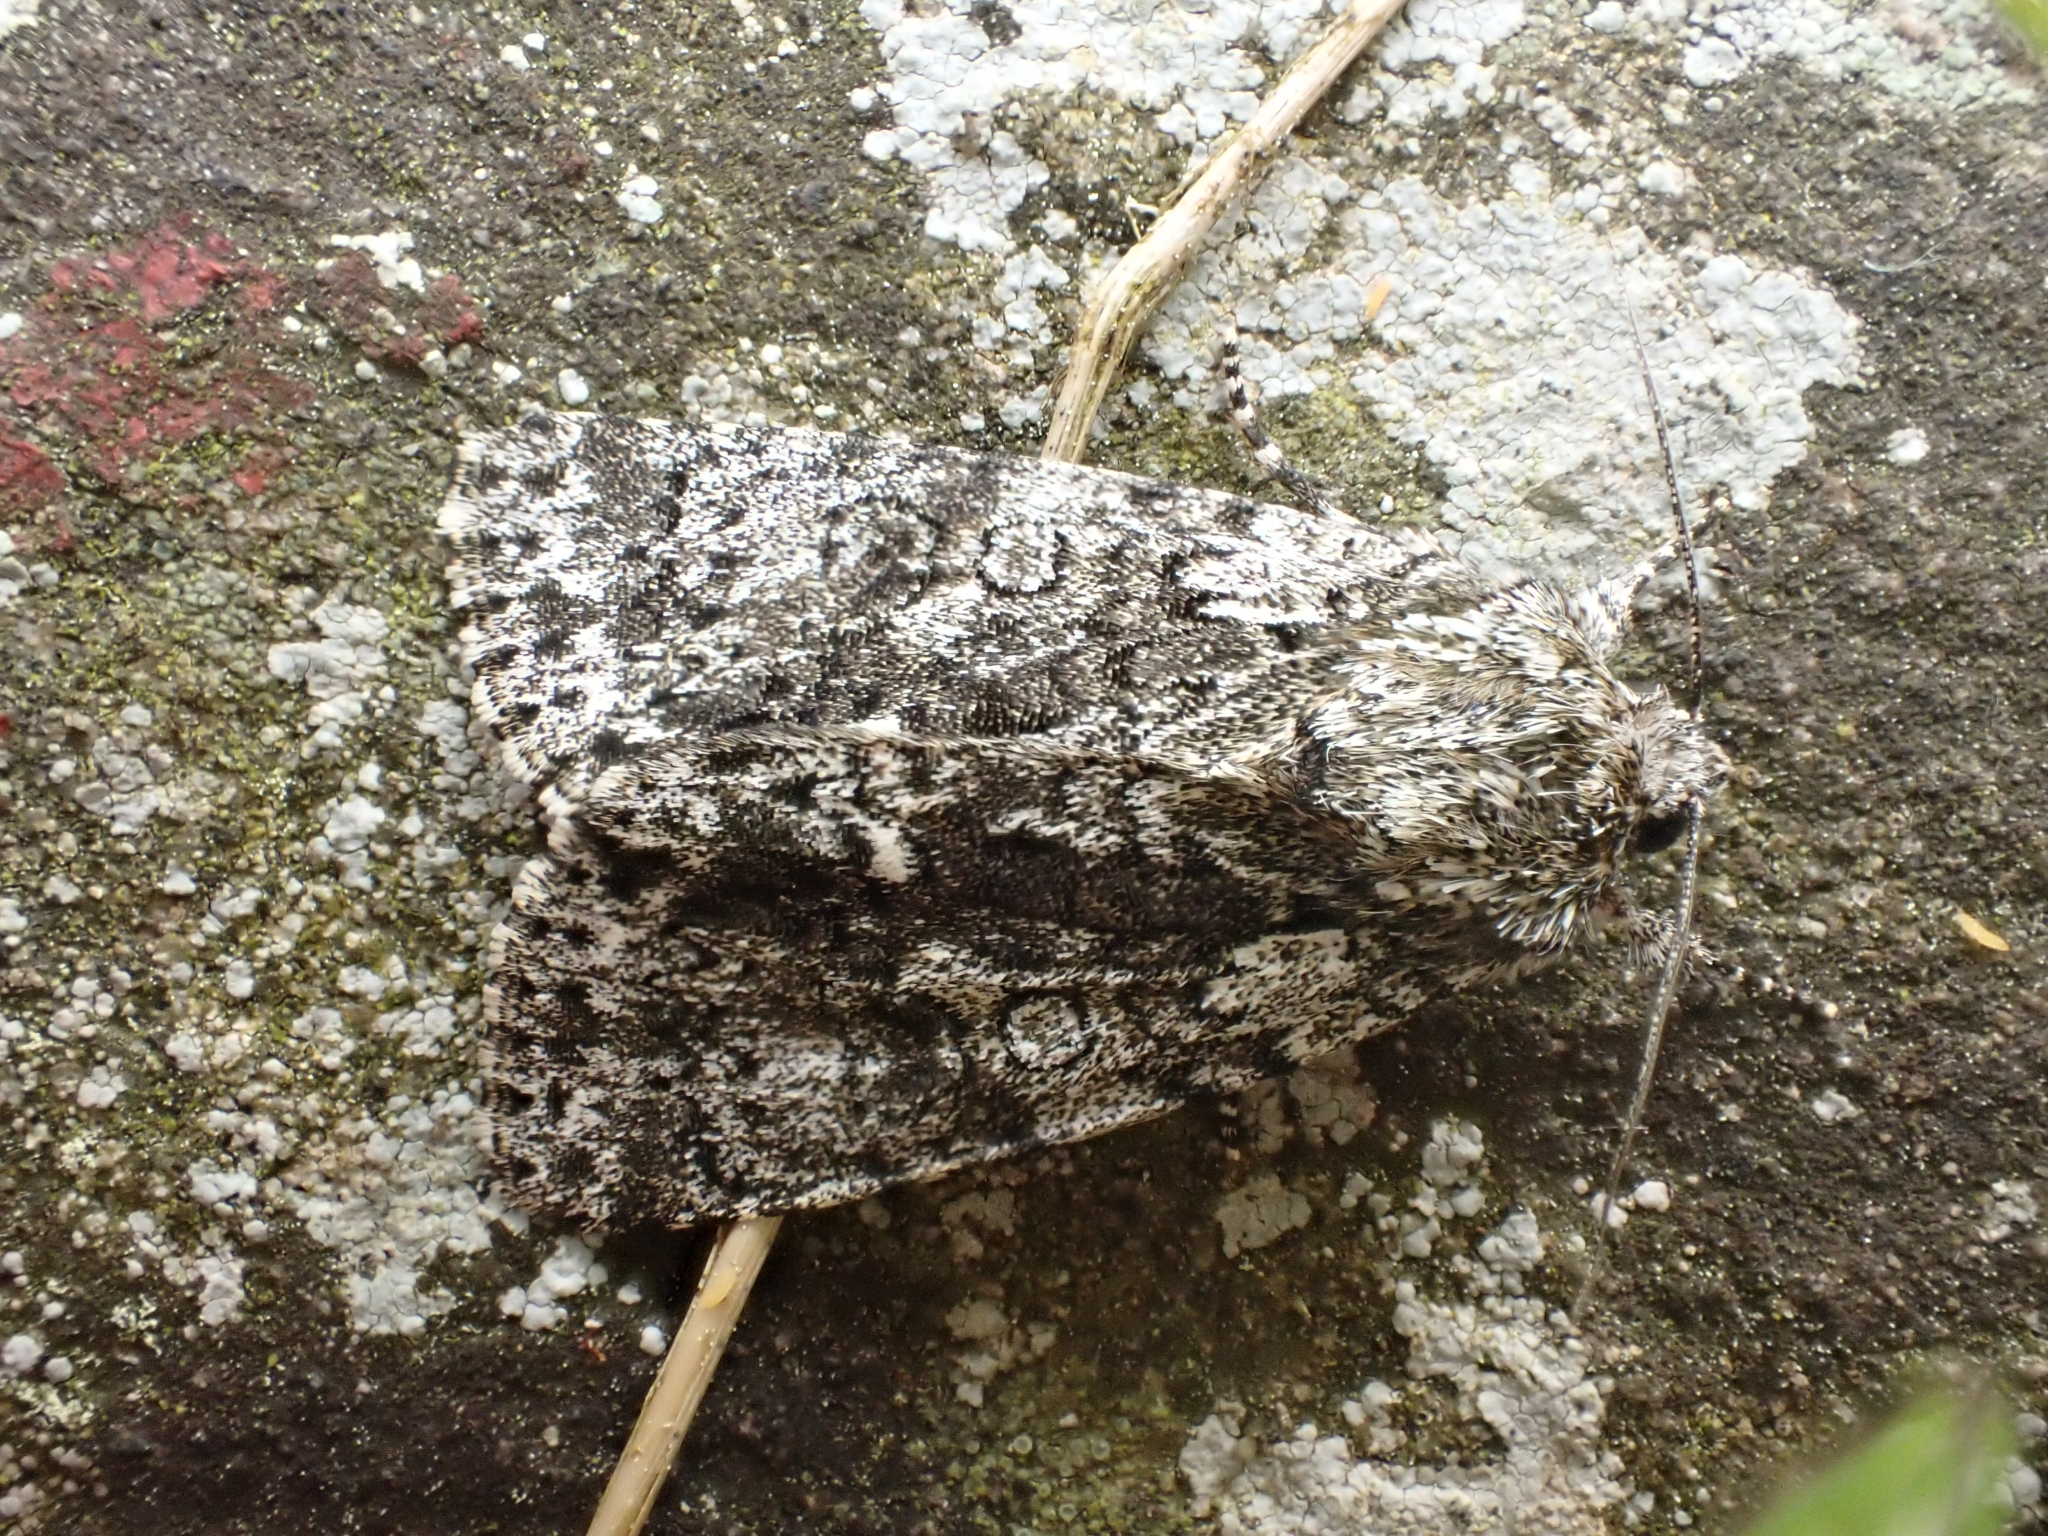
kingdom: Animalia
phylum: Arthropoda
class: Insecta
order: Lepidoptera
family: Noctuidae
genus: Acronicta
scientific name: Acronicta rumicis
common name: Knot grass
